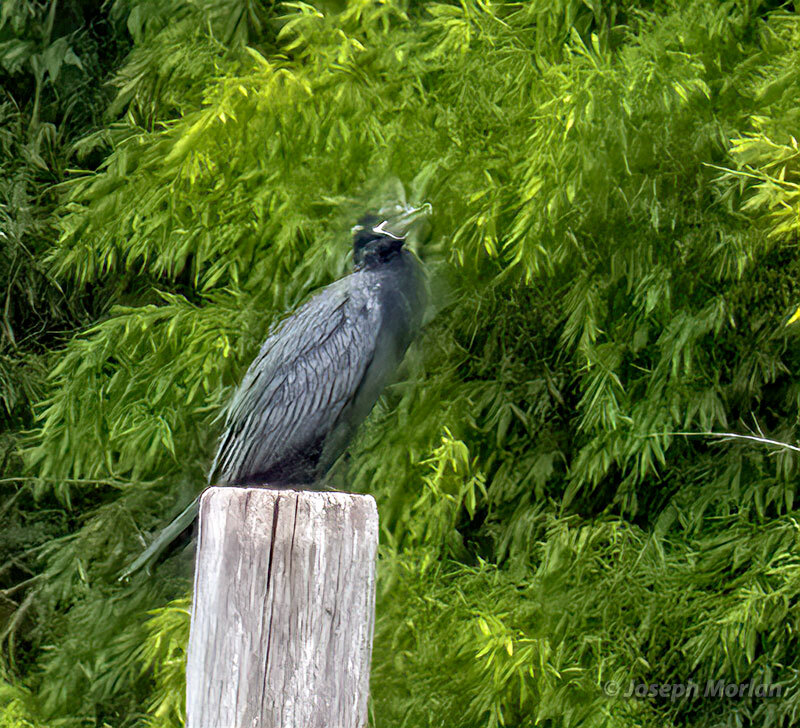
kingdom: Animalia
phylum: Chordata
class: Aves
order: Suliformes
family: Phalacrocoracidae
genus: Phalacrocorax
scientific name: Phalacrocorax brasilianus
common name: Neotropic cormorant
